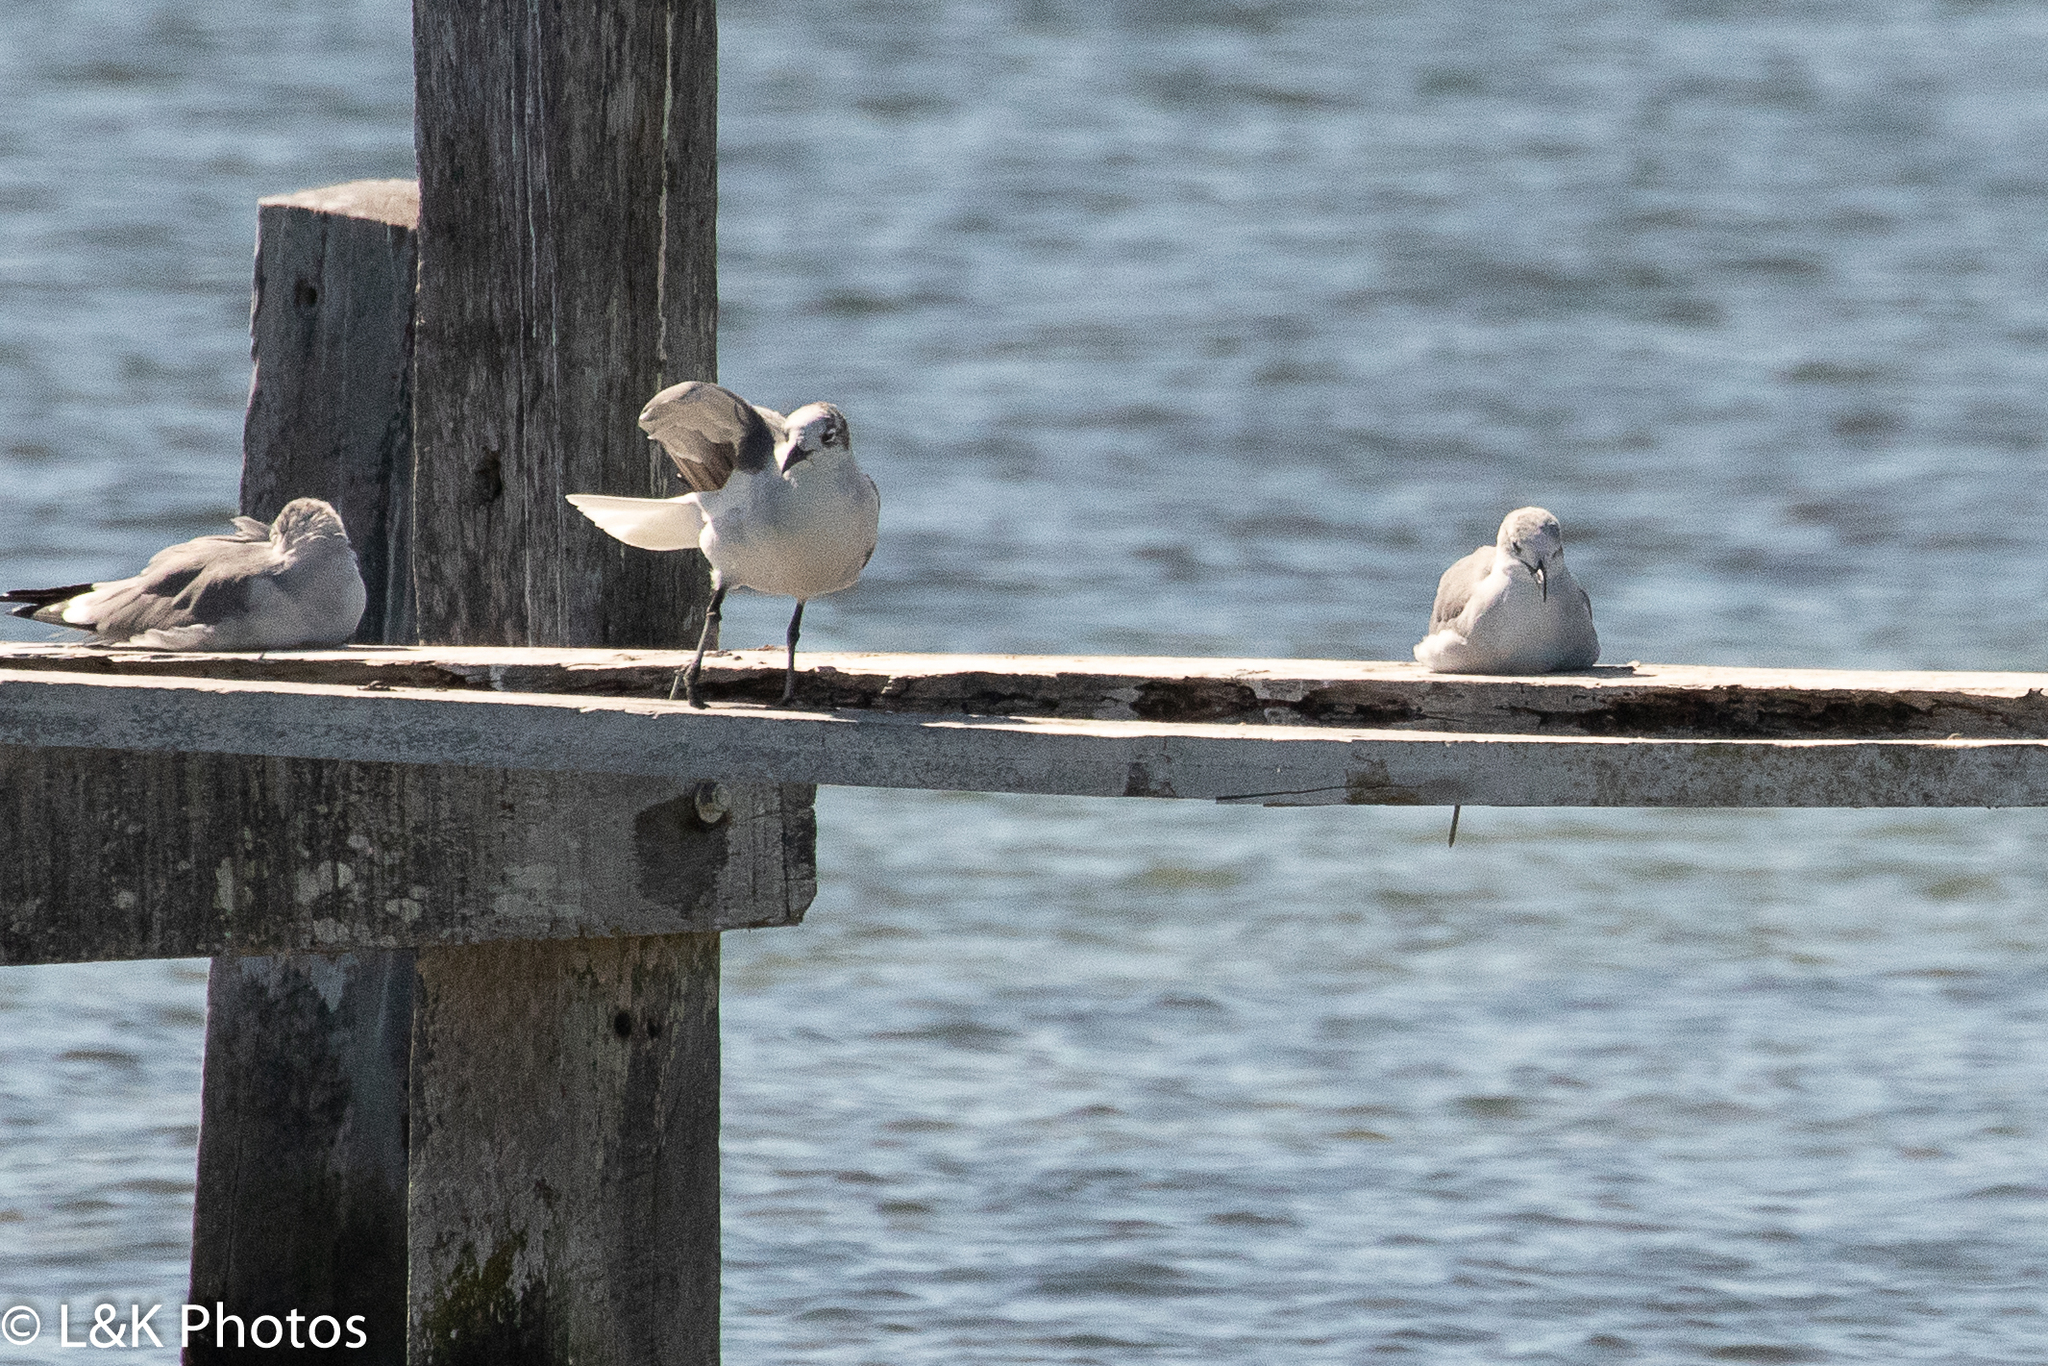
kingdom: Animalia
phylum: Chordata
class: Aves
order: Charadriiformes
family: Laridae
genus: Leucophaeus
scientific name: Leucophaeus atricilla
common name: Laughing gull
